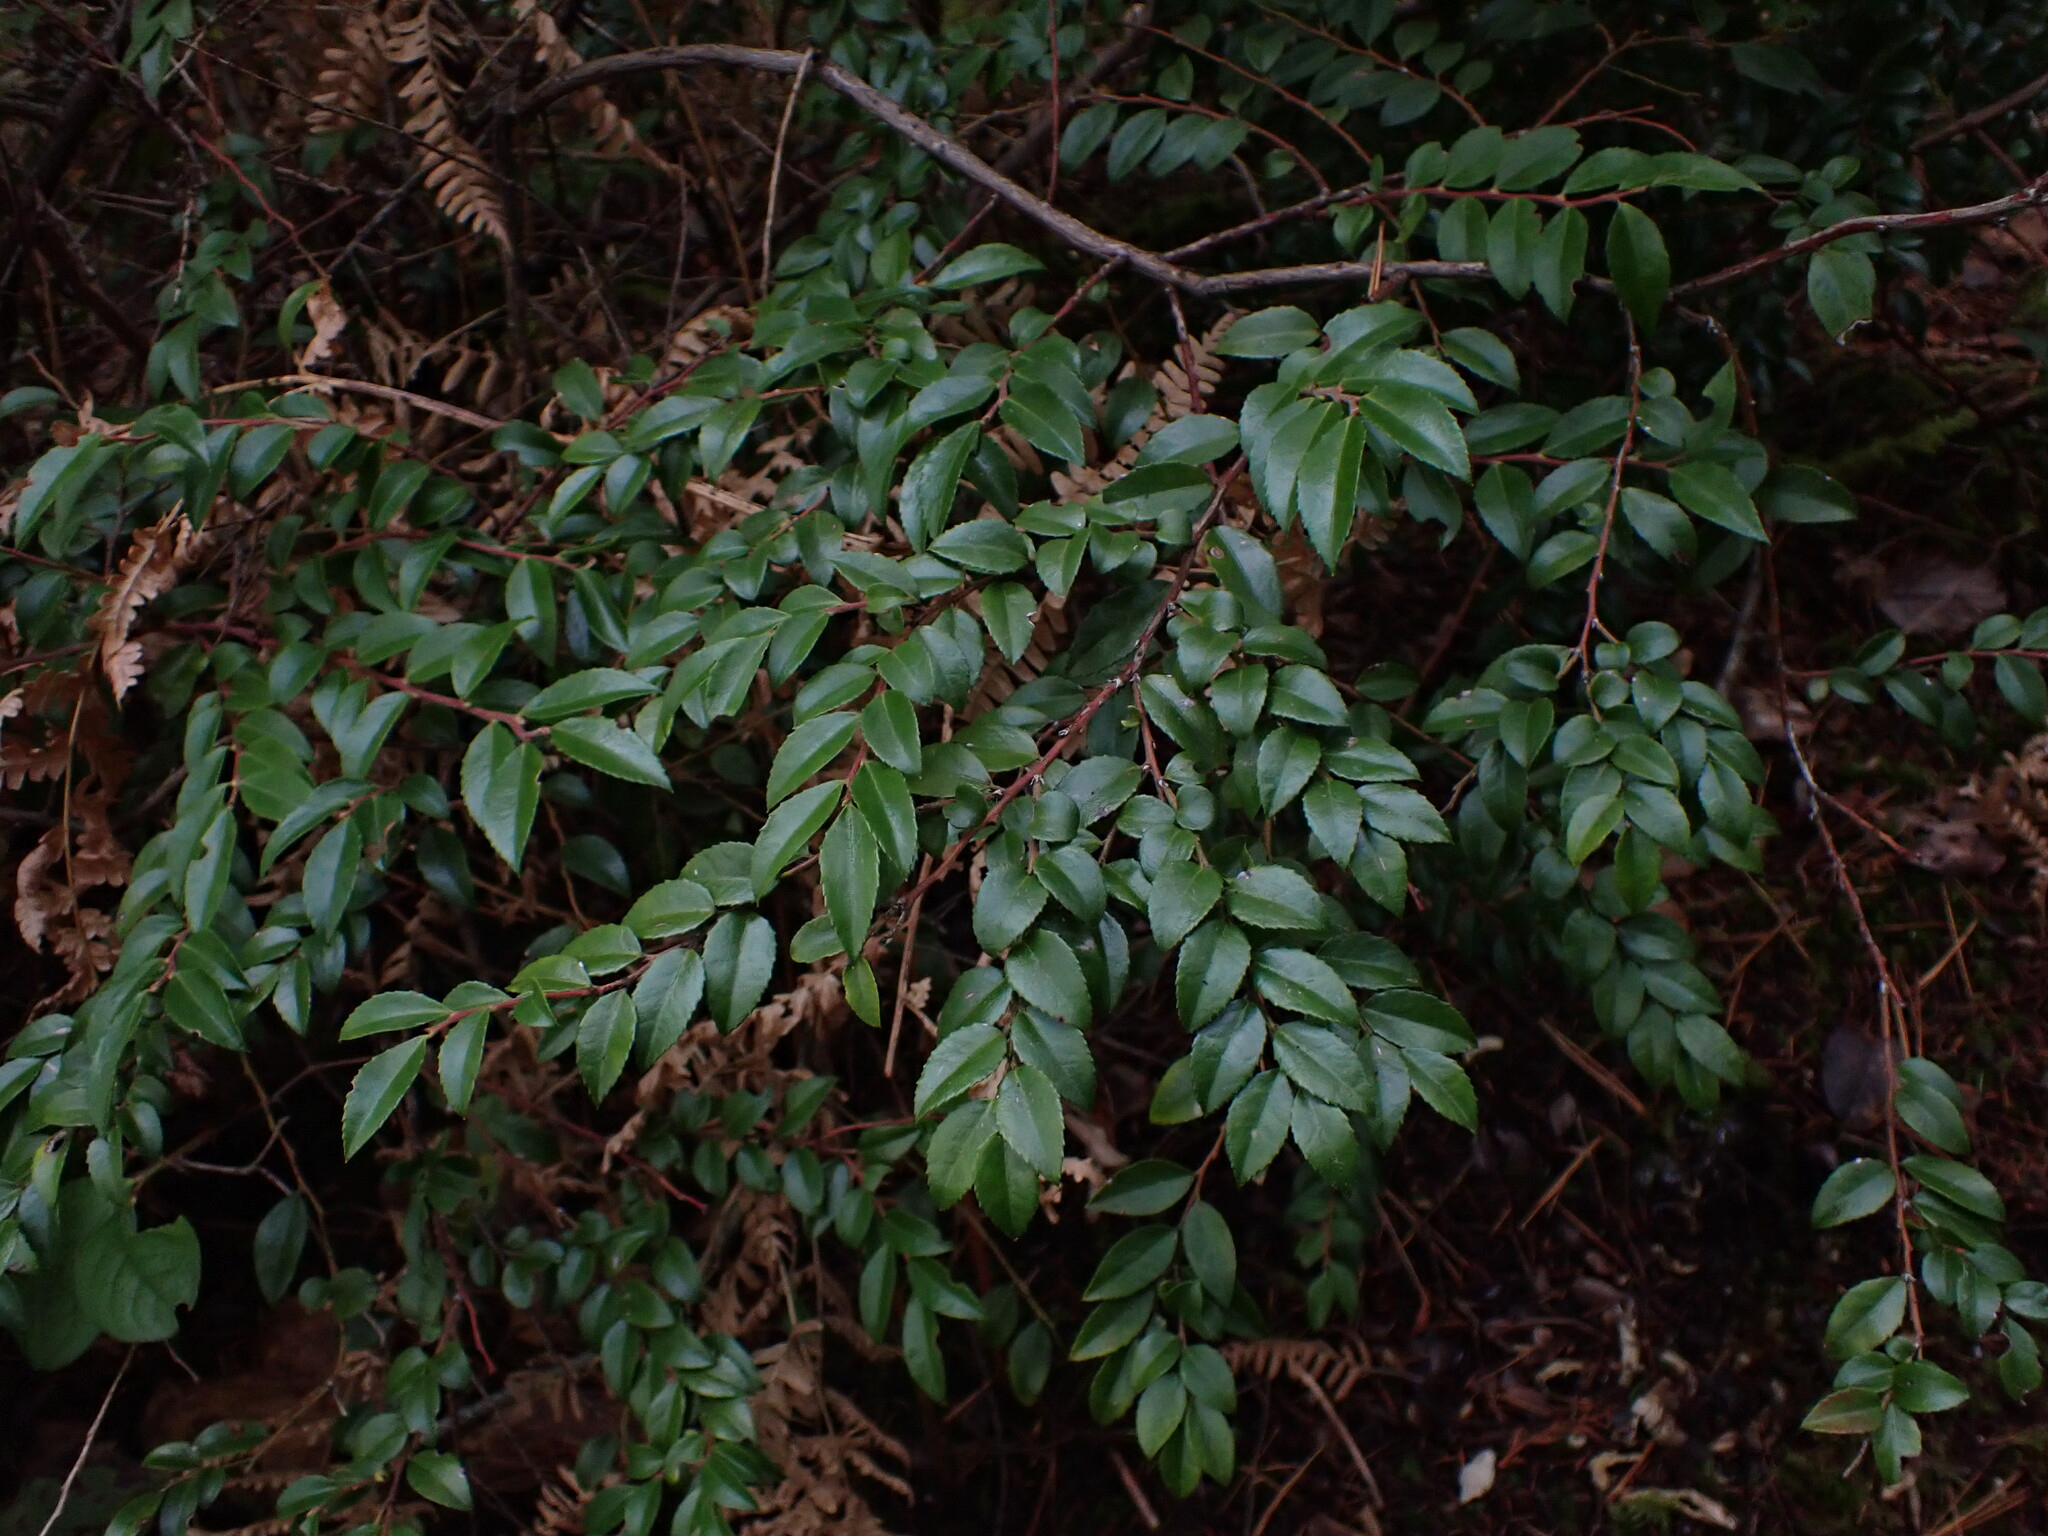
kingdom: Plantae
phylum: Tracheophyta
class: Magnoliopsida
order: Ericales
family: Ericaceae
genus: Vaccinium
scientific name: Vaccinium ovatum
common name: California-huckleberry
